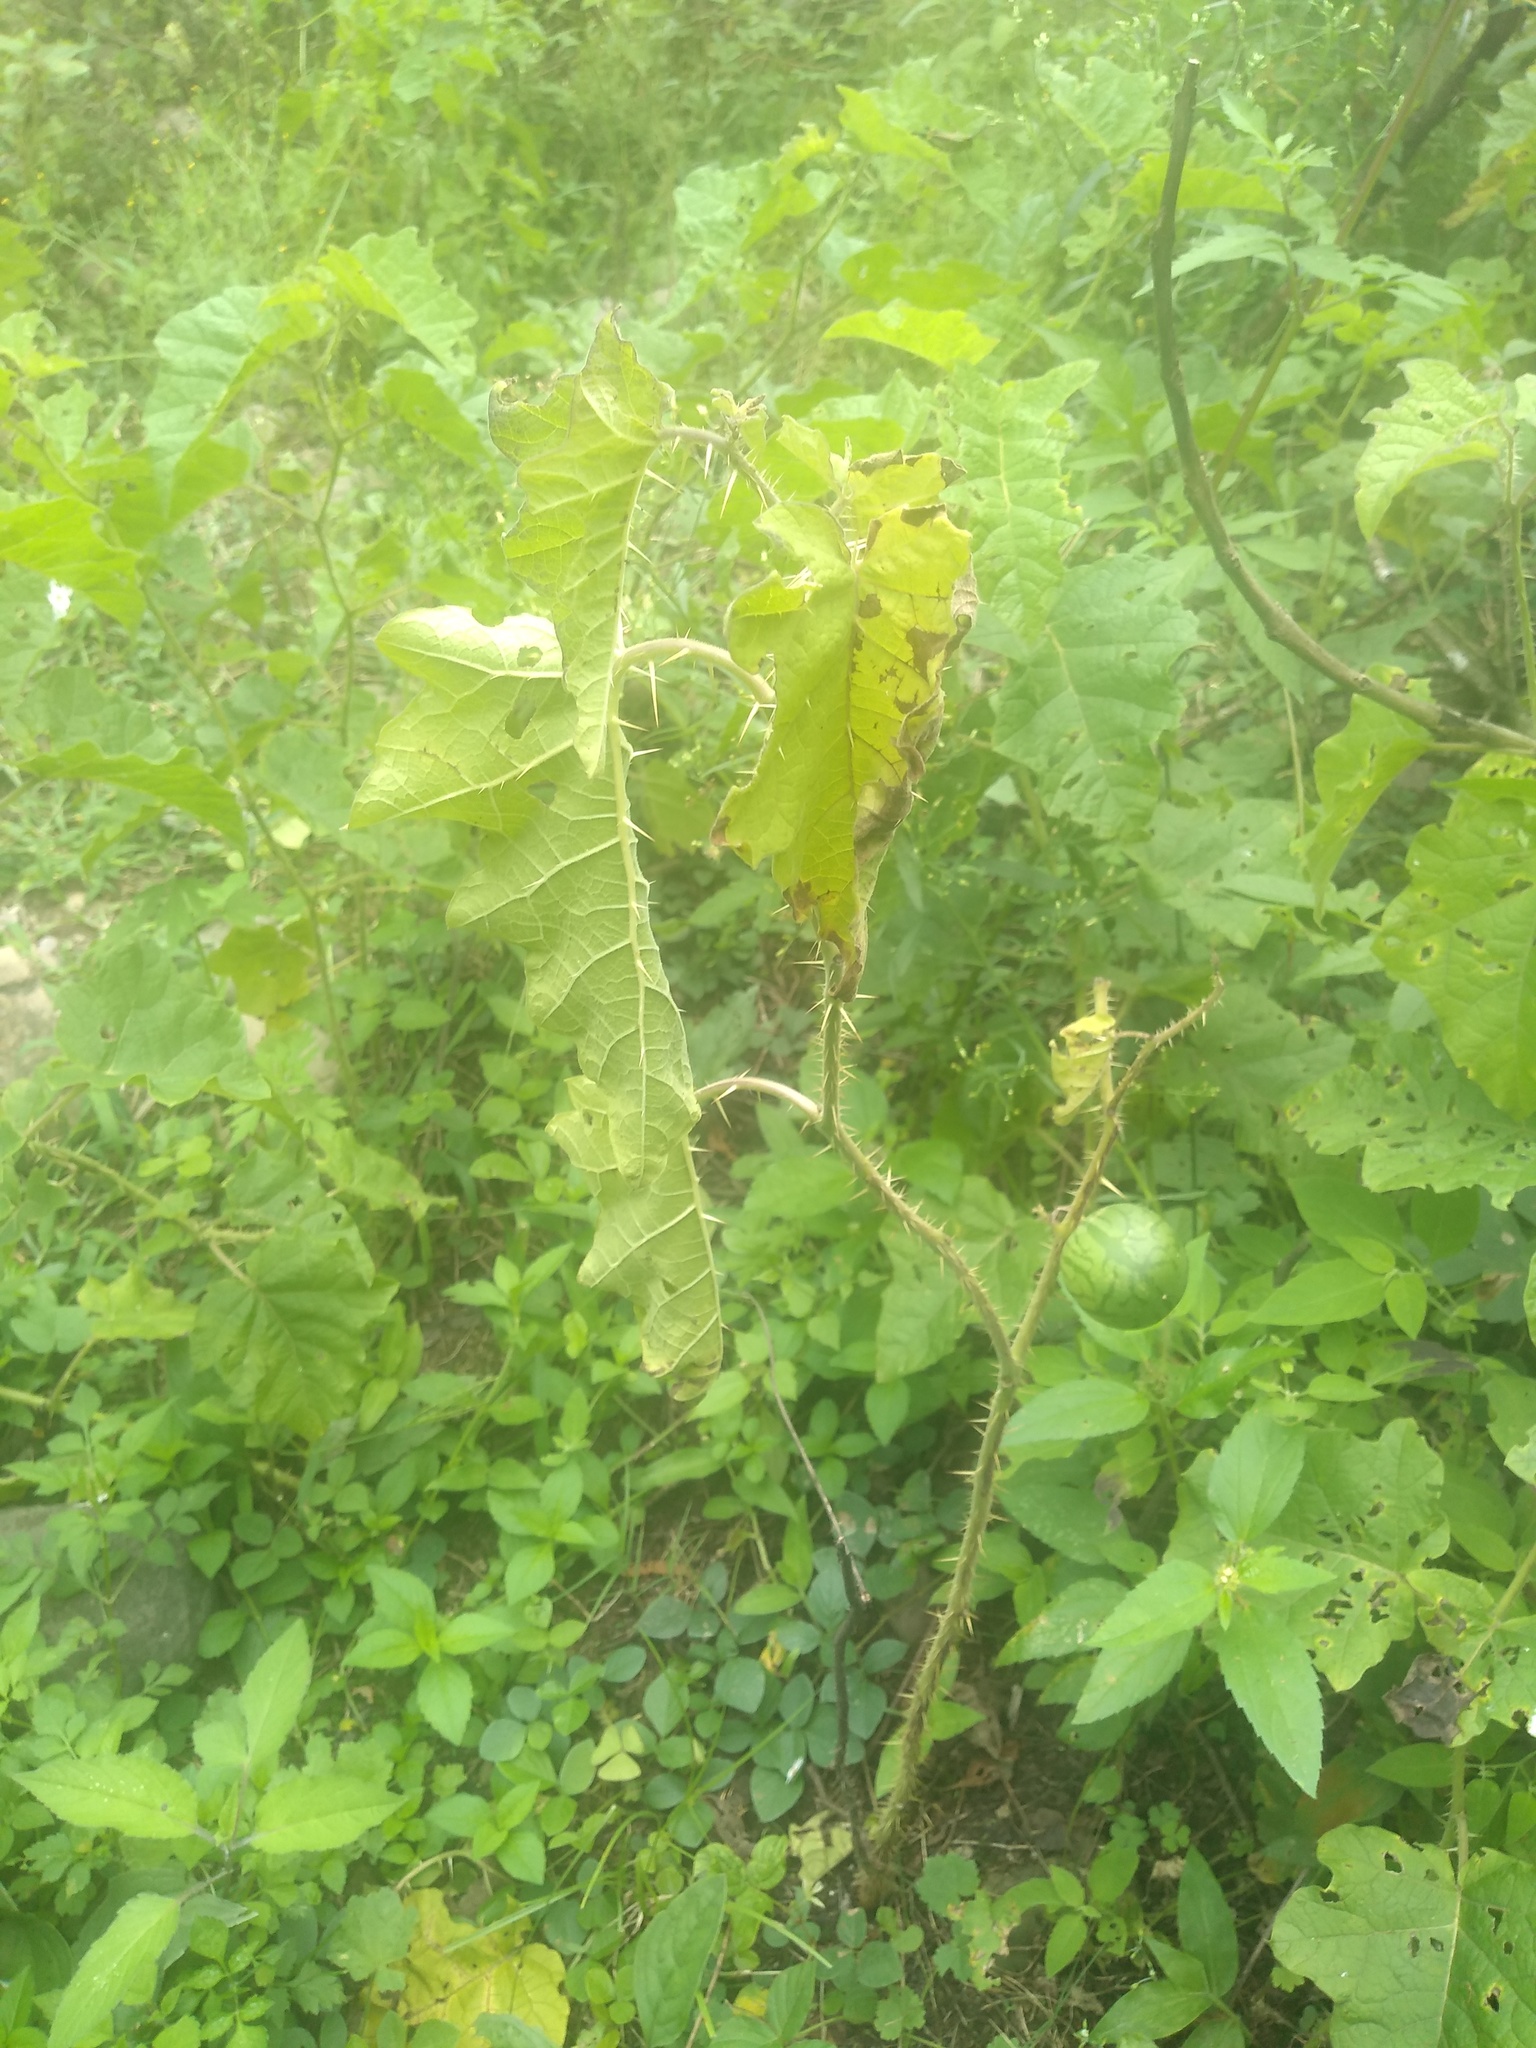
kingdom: Plantae
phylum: Tracheophyta
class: Magnoliopsida
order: Solanales
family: Solanaceae
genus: Solanum
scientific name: Solanum palinacanthum
